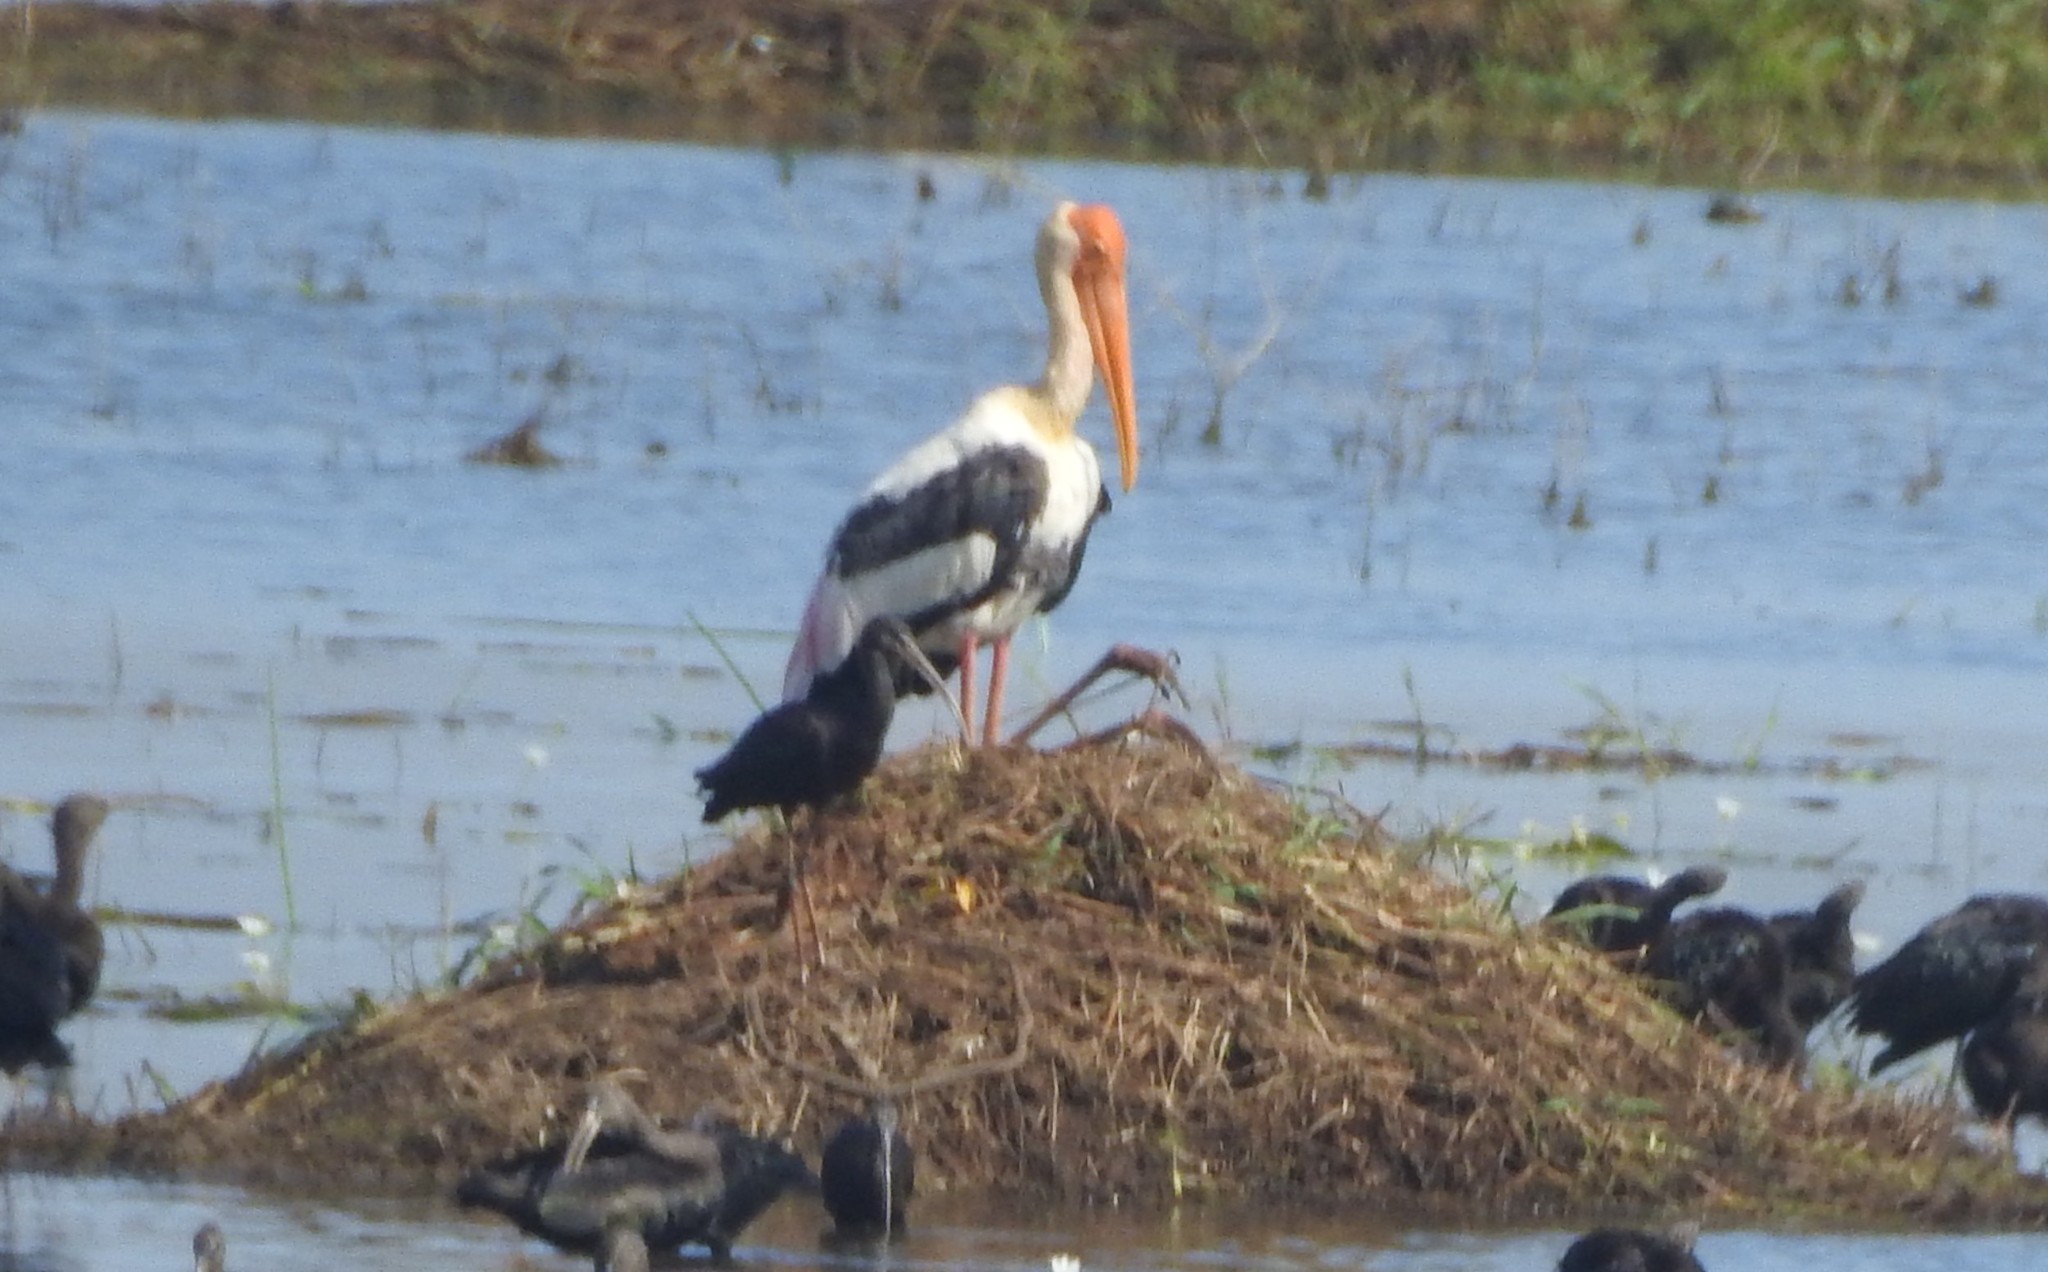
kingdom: Animalia
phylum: Chordata
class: Aves
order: Ciconiiformes
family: Ciconiidae
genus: Mycteria
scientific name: Mycteria leucocephala
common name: Painted stork
